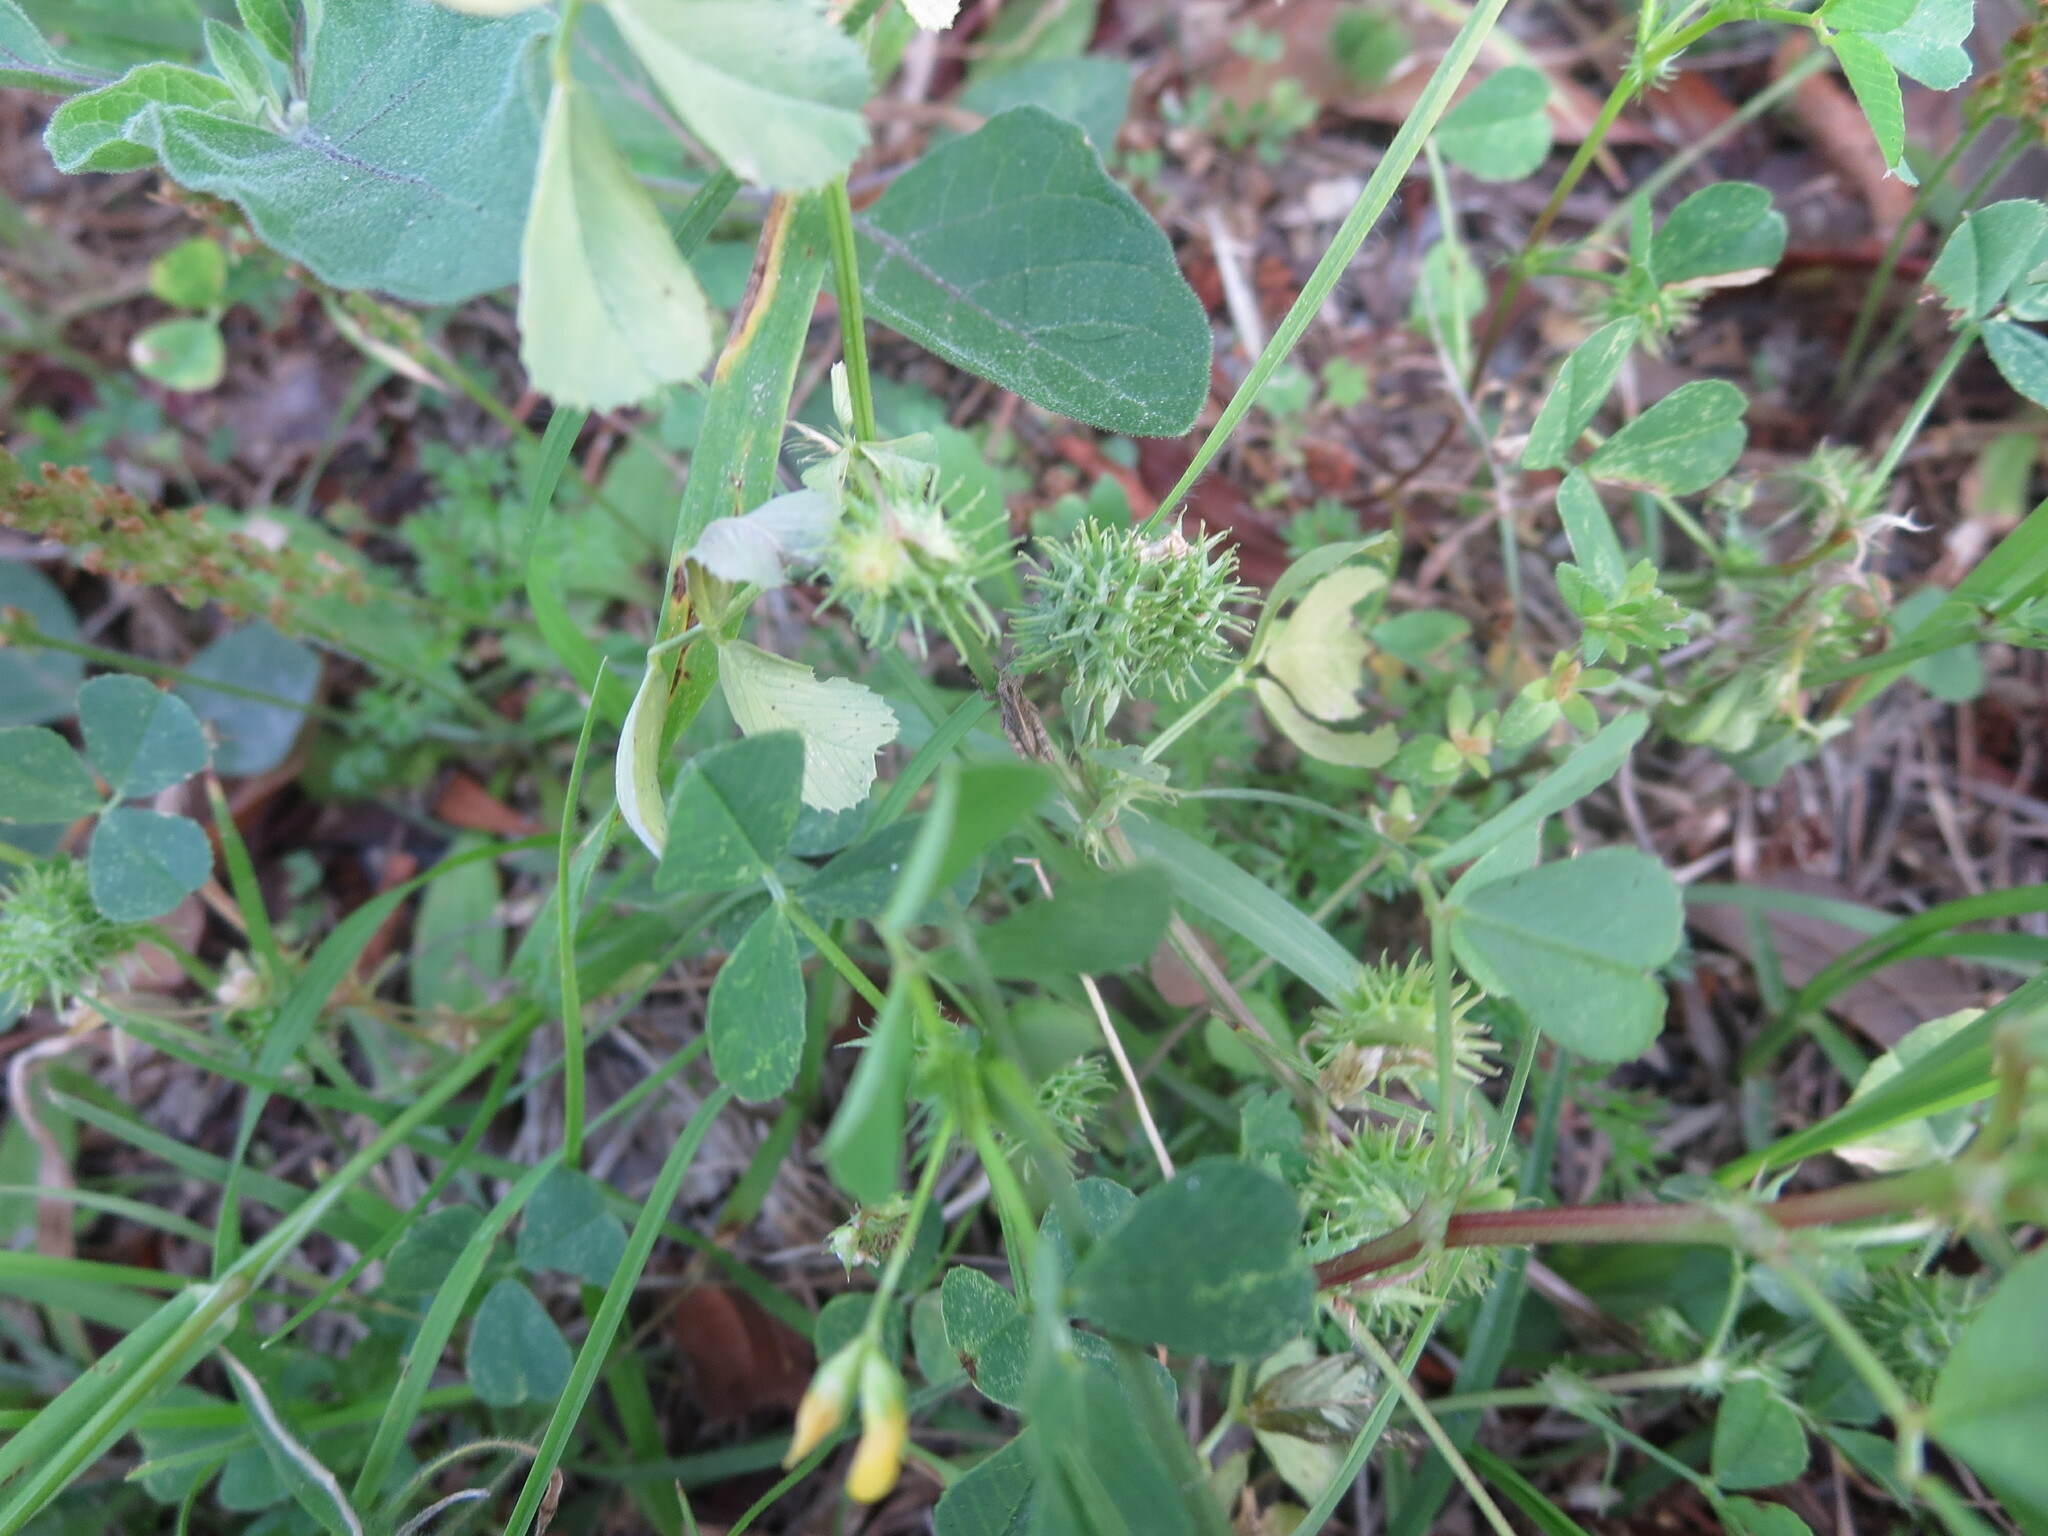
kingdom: Plantae
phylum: Tracheophyta
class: Magnoliopsida
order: Fabales
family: Fabaceae
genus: Medicago
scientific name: Medicago polymorpha
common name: Burclover
